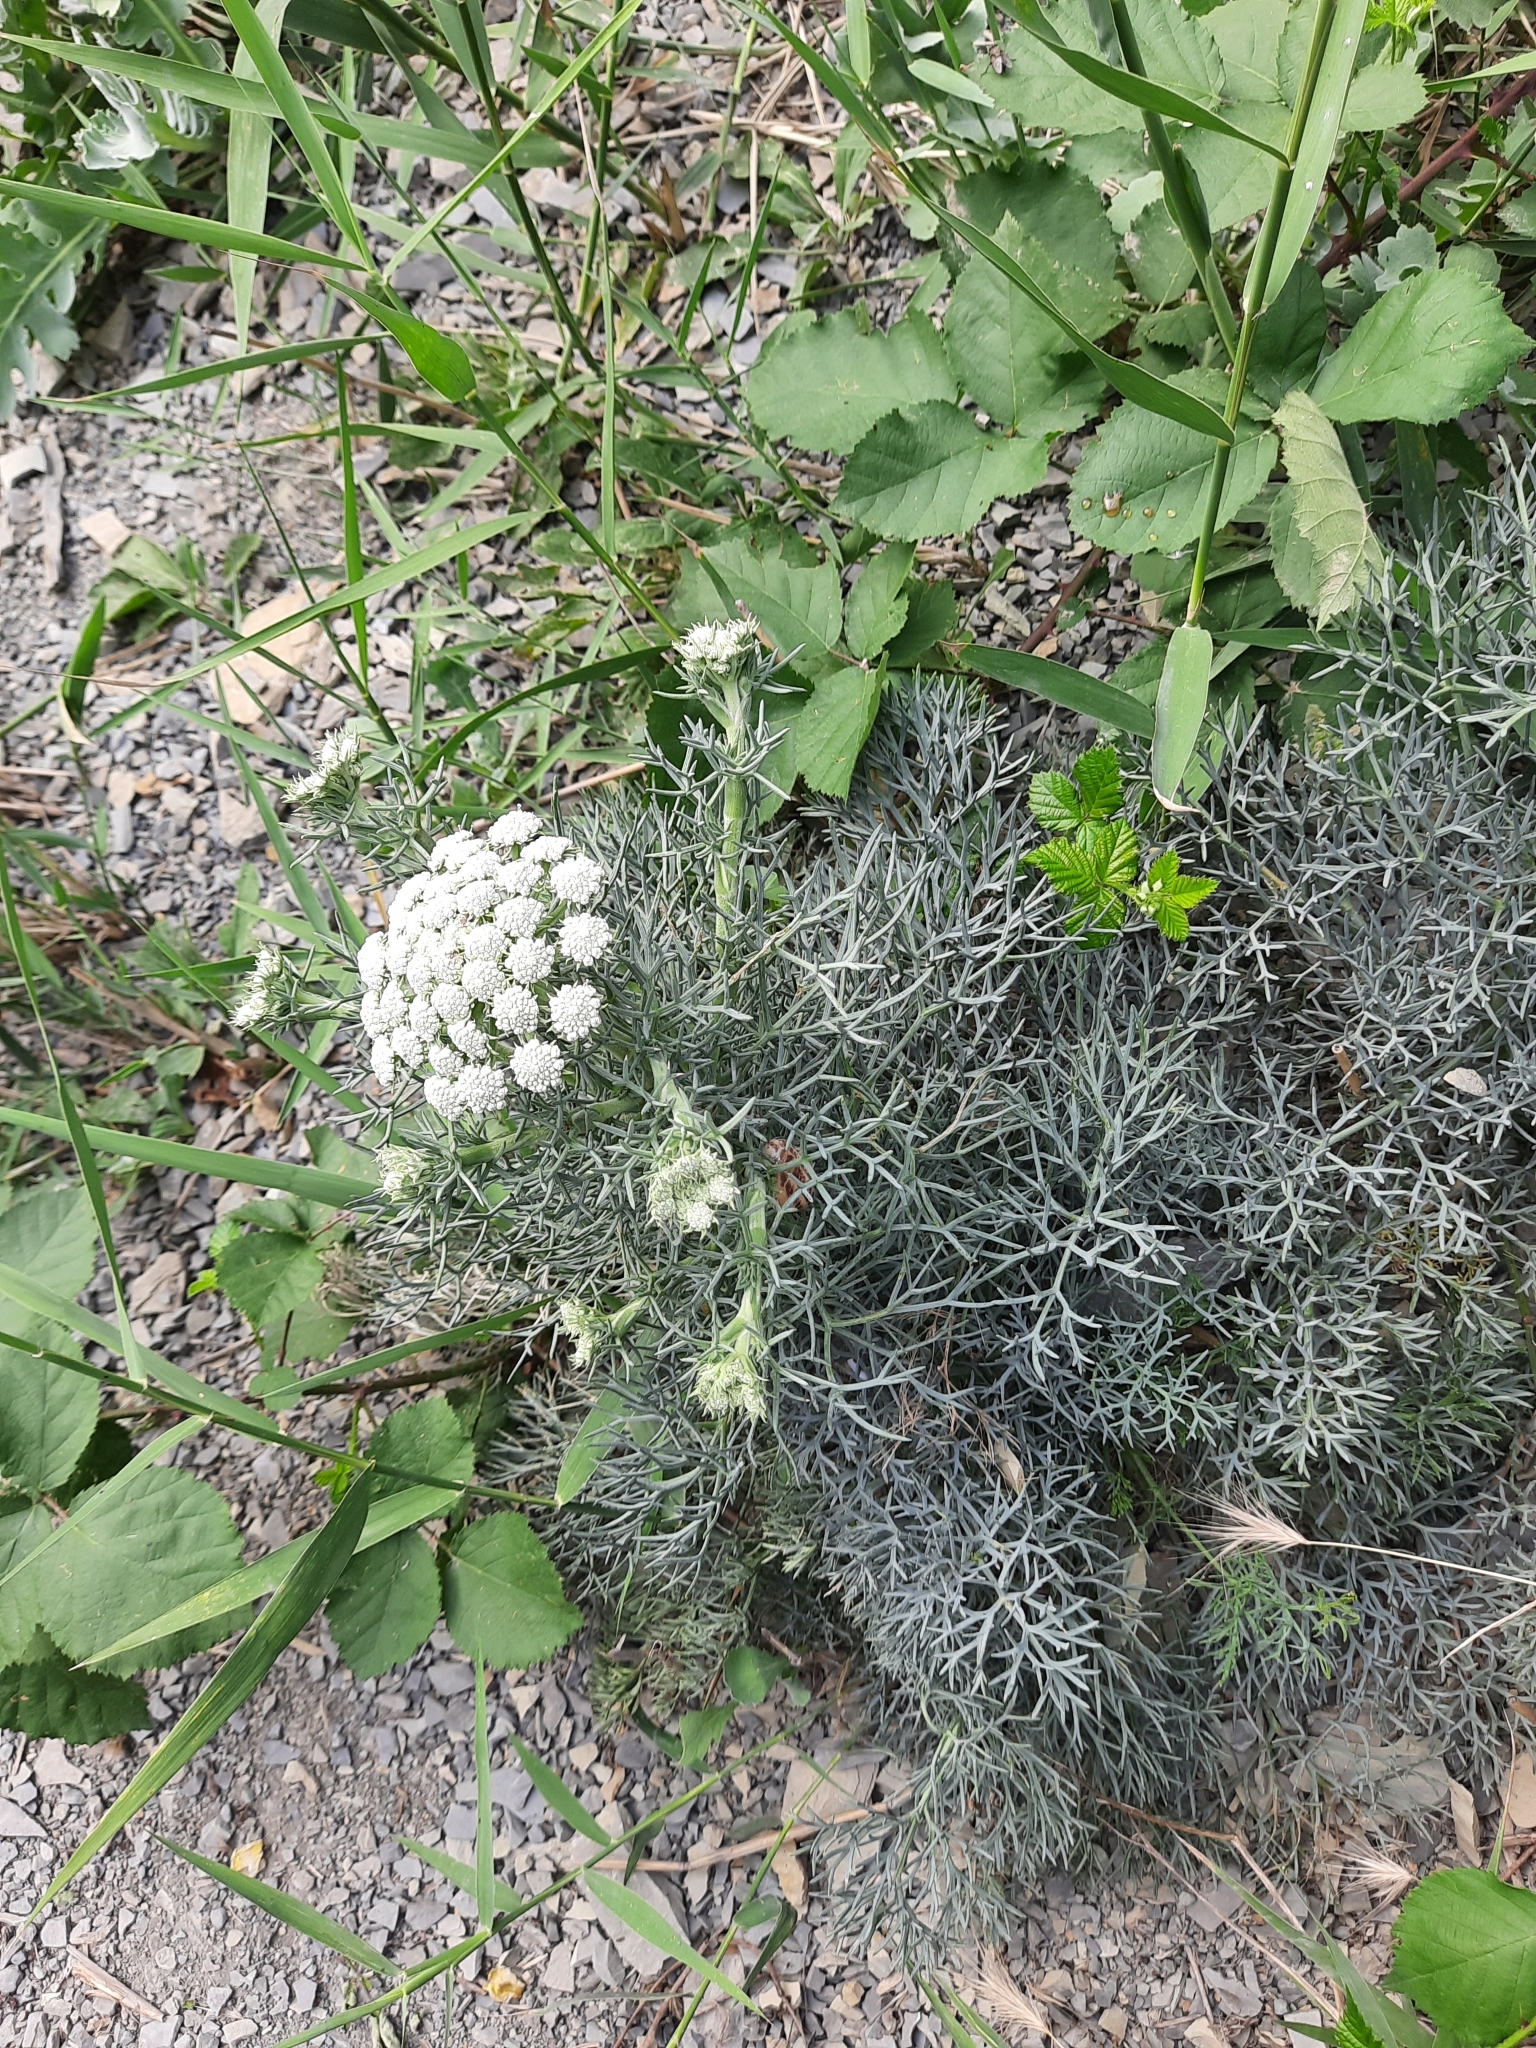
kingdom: Plantae
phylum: Tracheophyta
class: Magnoliopsida
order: Apiales
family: Apiaceae
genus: Seseli
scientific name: Seseli ponticum
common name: Pontic seseli
